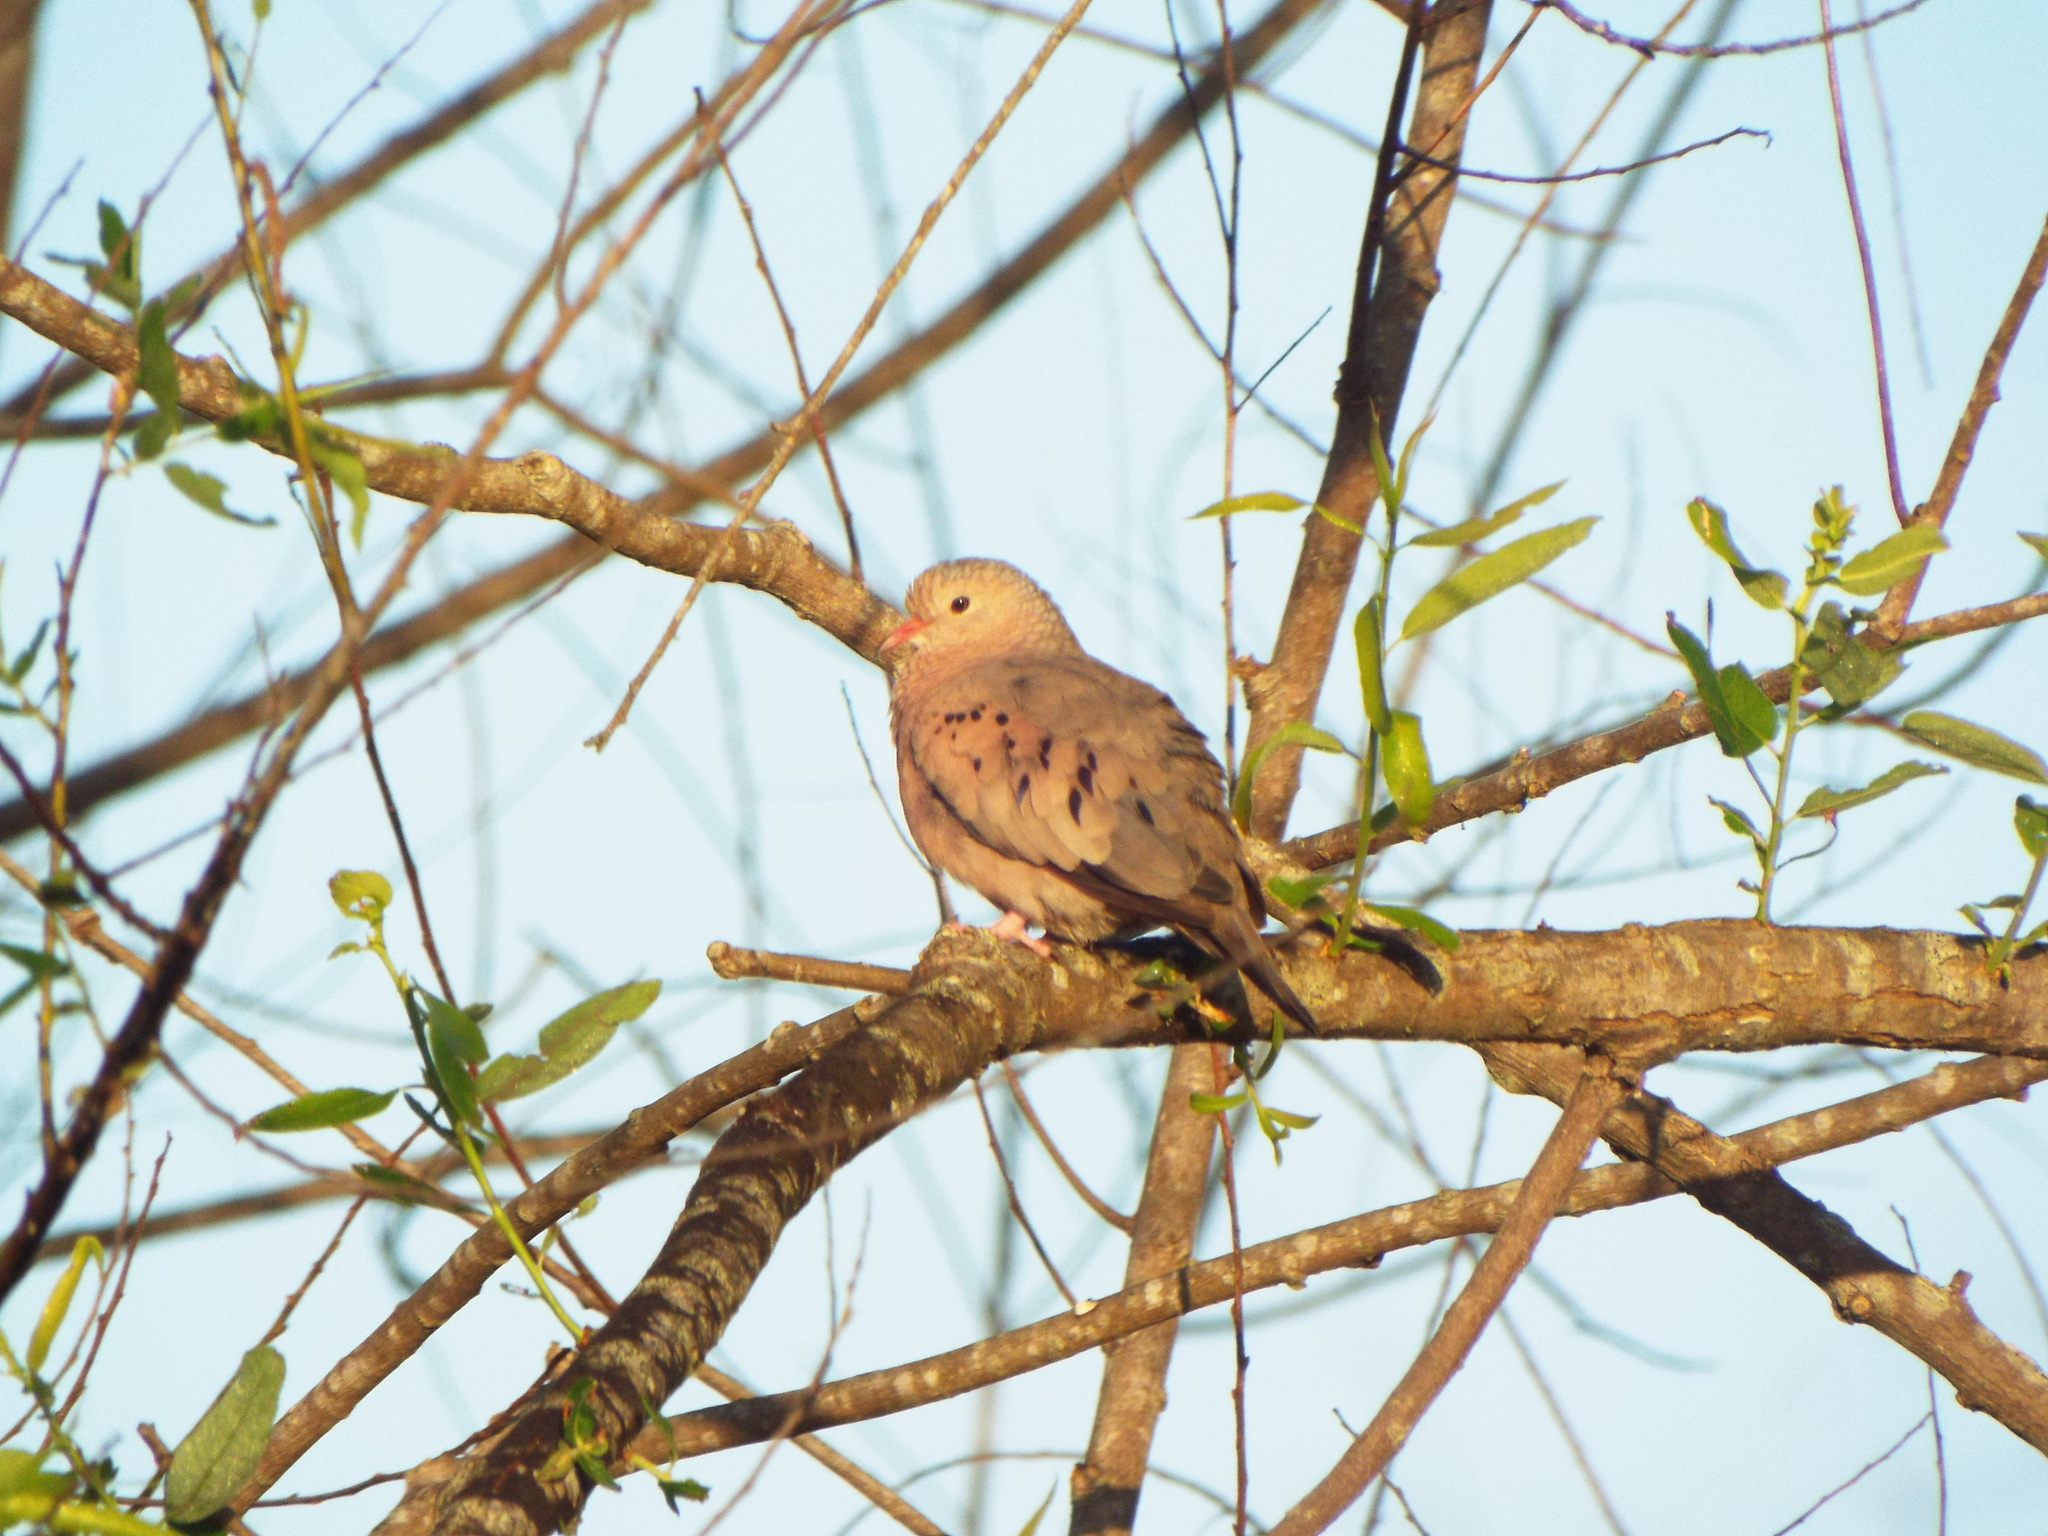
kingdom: Animalia
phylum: Chordata
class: Aves
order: Columbiformes
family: Columbidae
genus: Columbina
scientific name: Columbina passerina
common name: Common ground-dove
